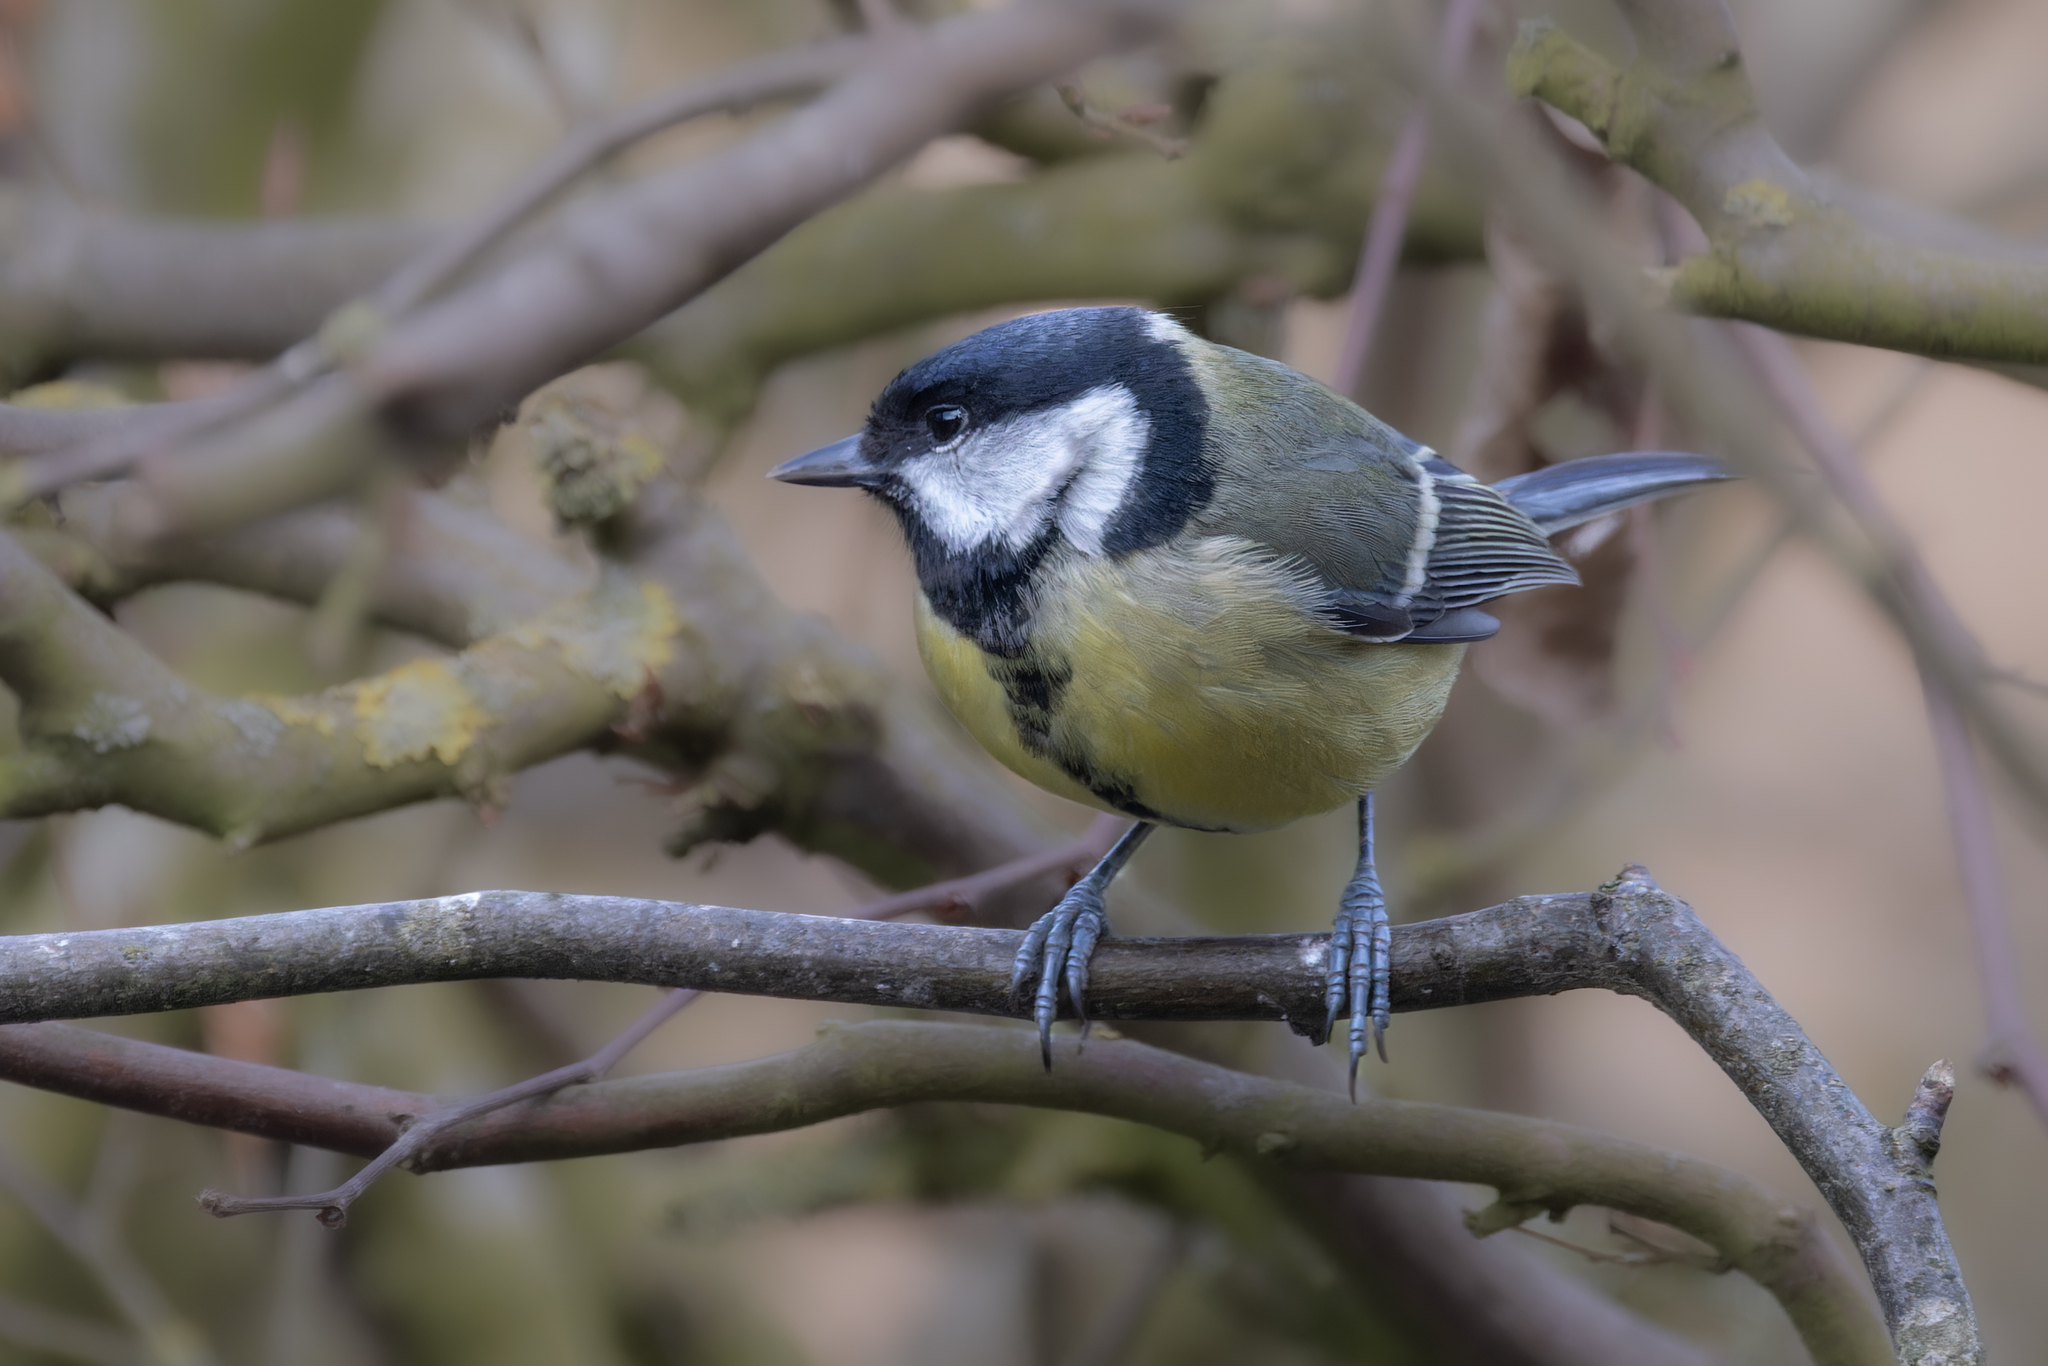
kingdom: Animalia
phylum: Chordata
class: Aves
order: Passeriformes
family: Paridae
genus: Parus
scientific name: Parus major
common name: Great tit
